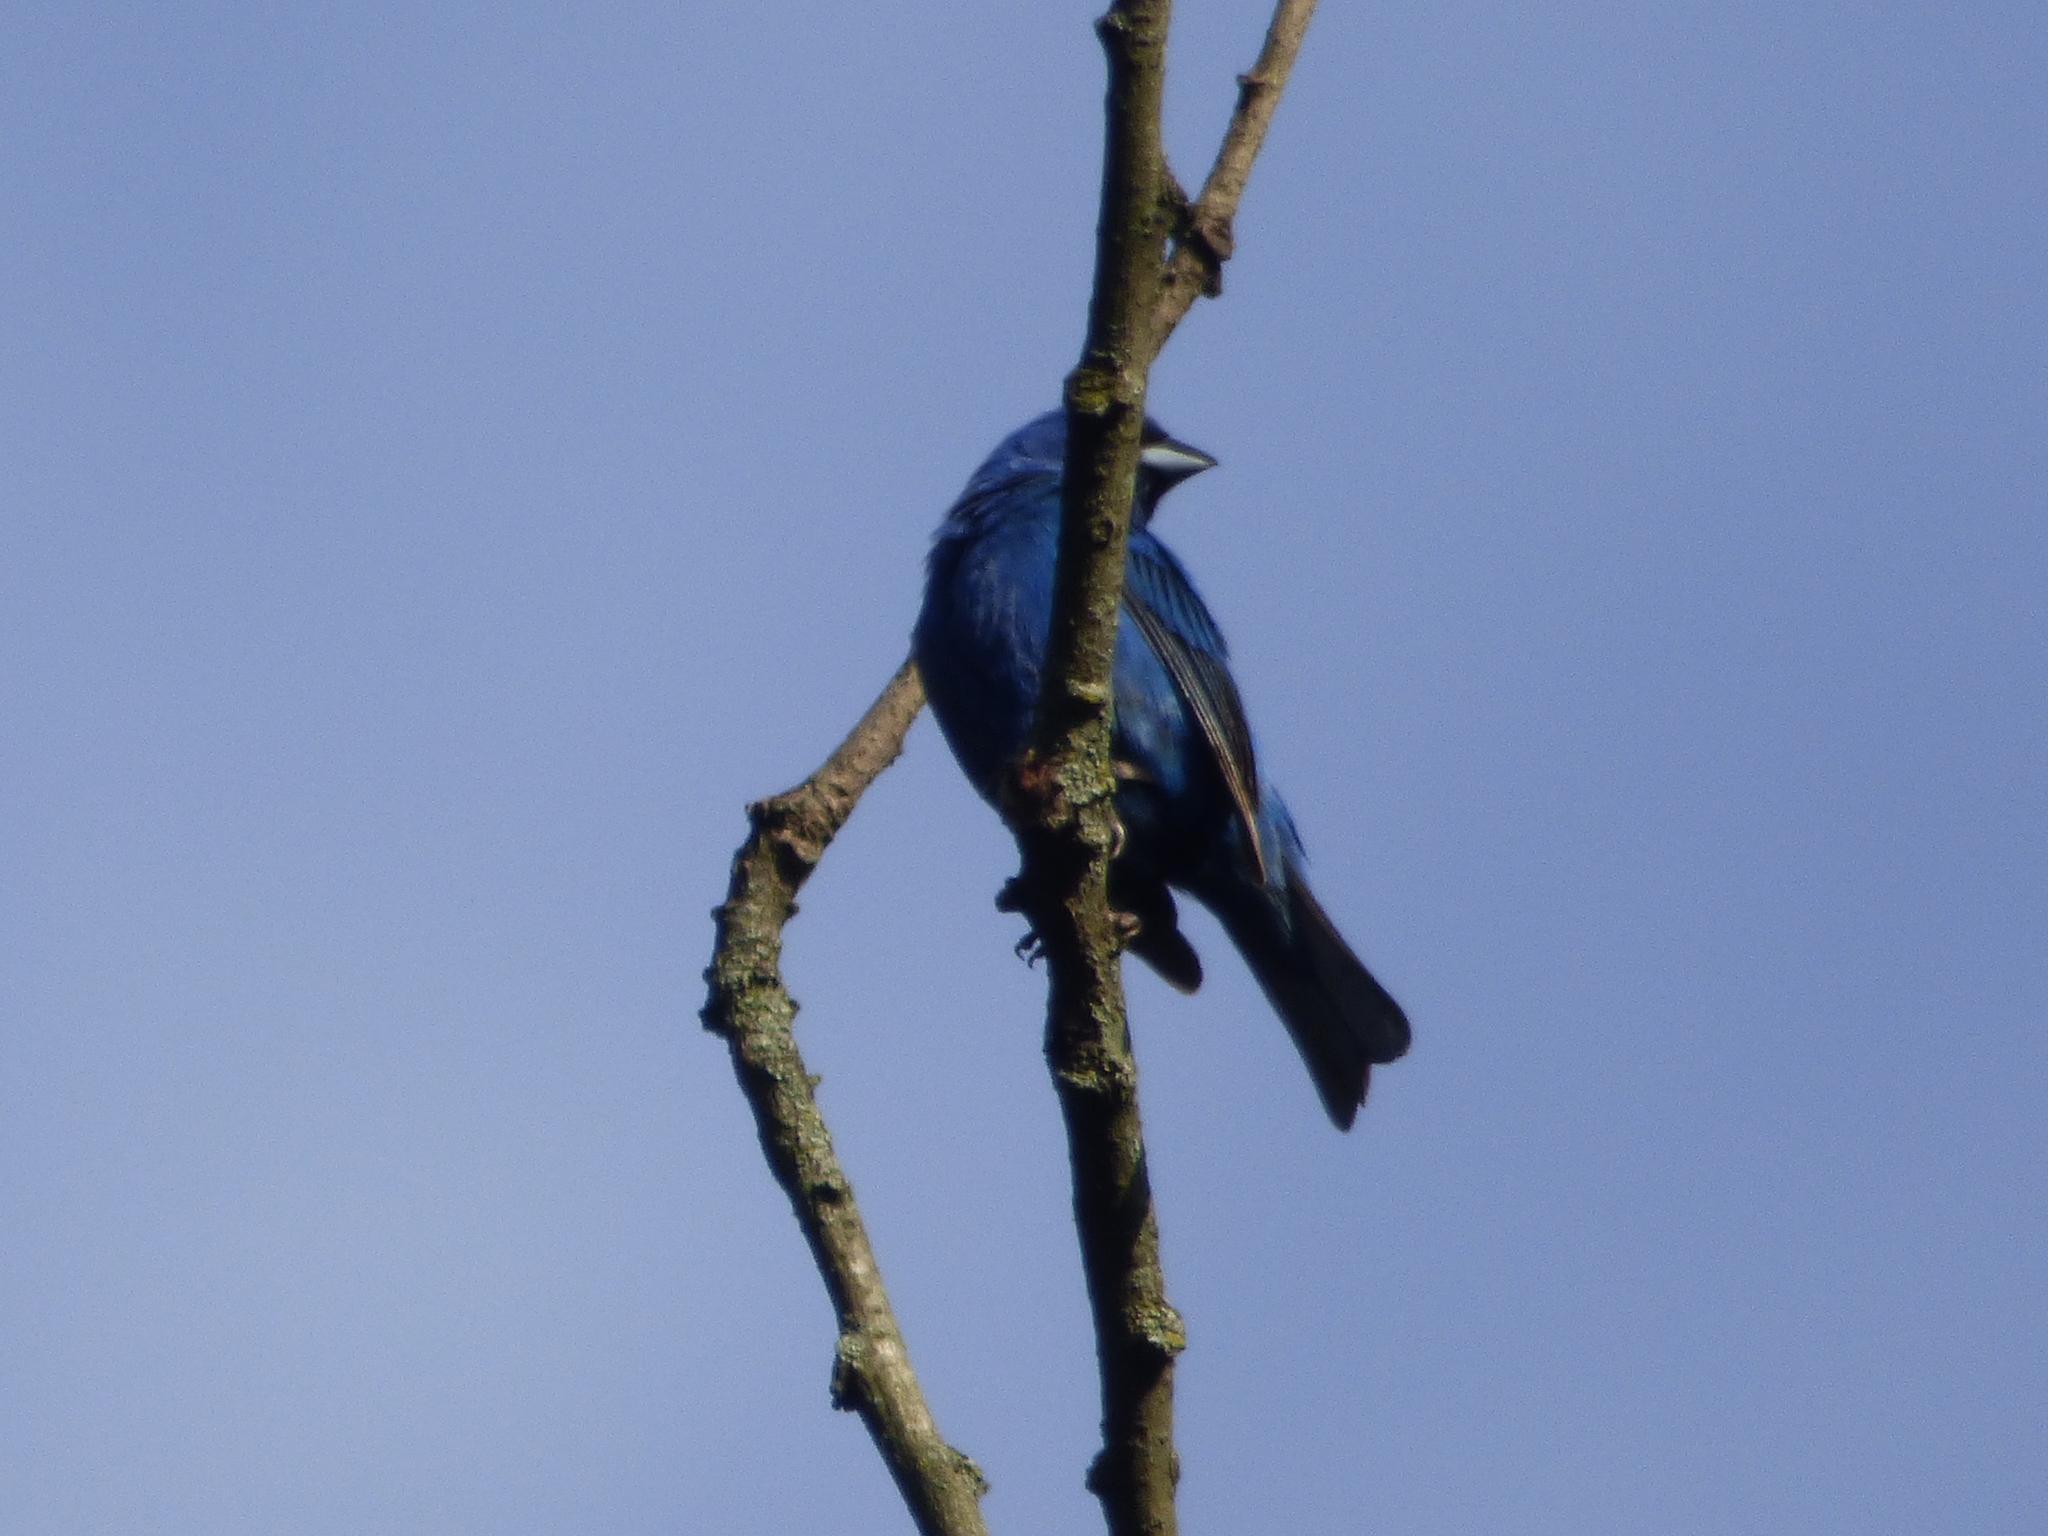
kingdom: Animalia
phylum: Chordata
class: Aves
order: Passeriformes
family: Cardinalidae
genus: Passerina
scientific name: Passerina cyanea
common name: Indigo bunting
